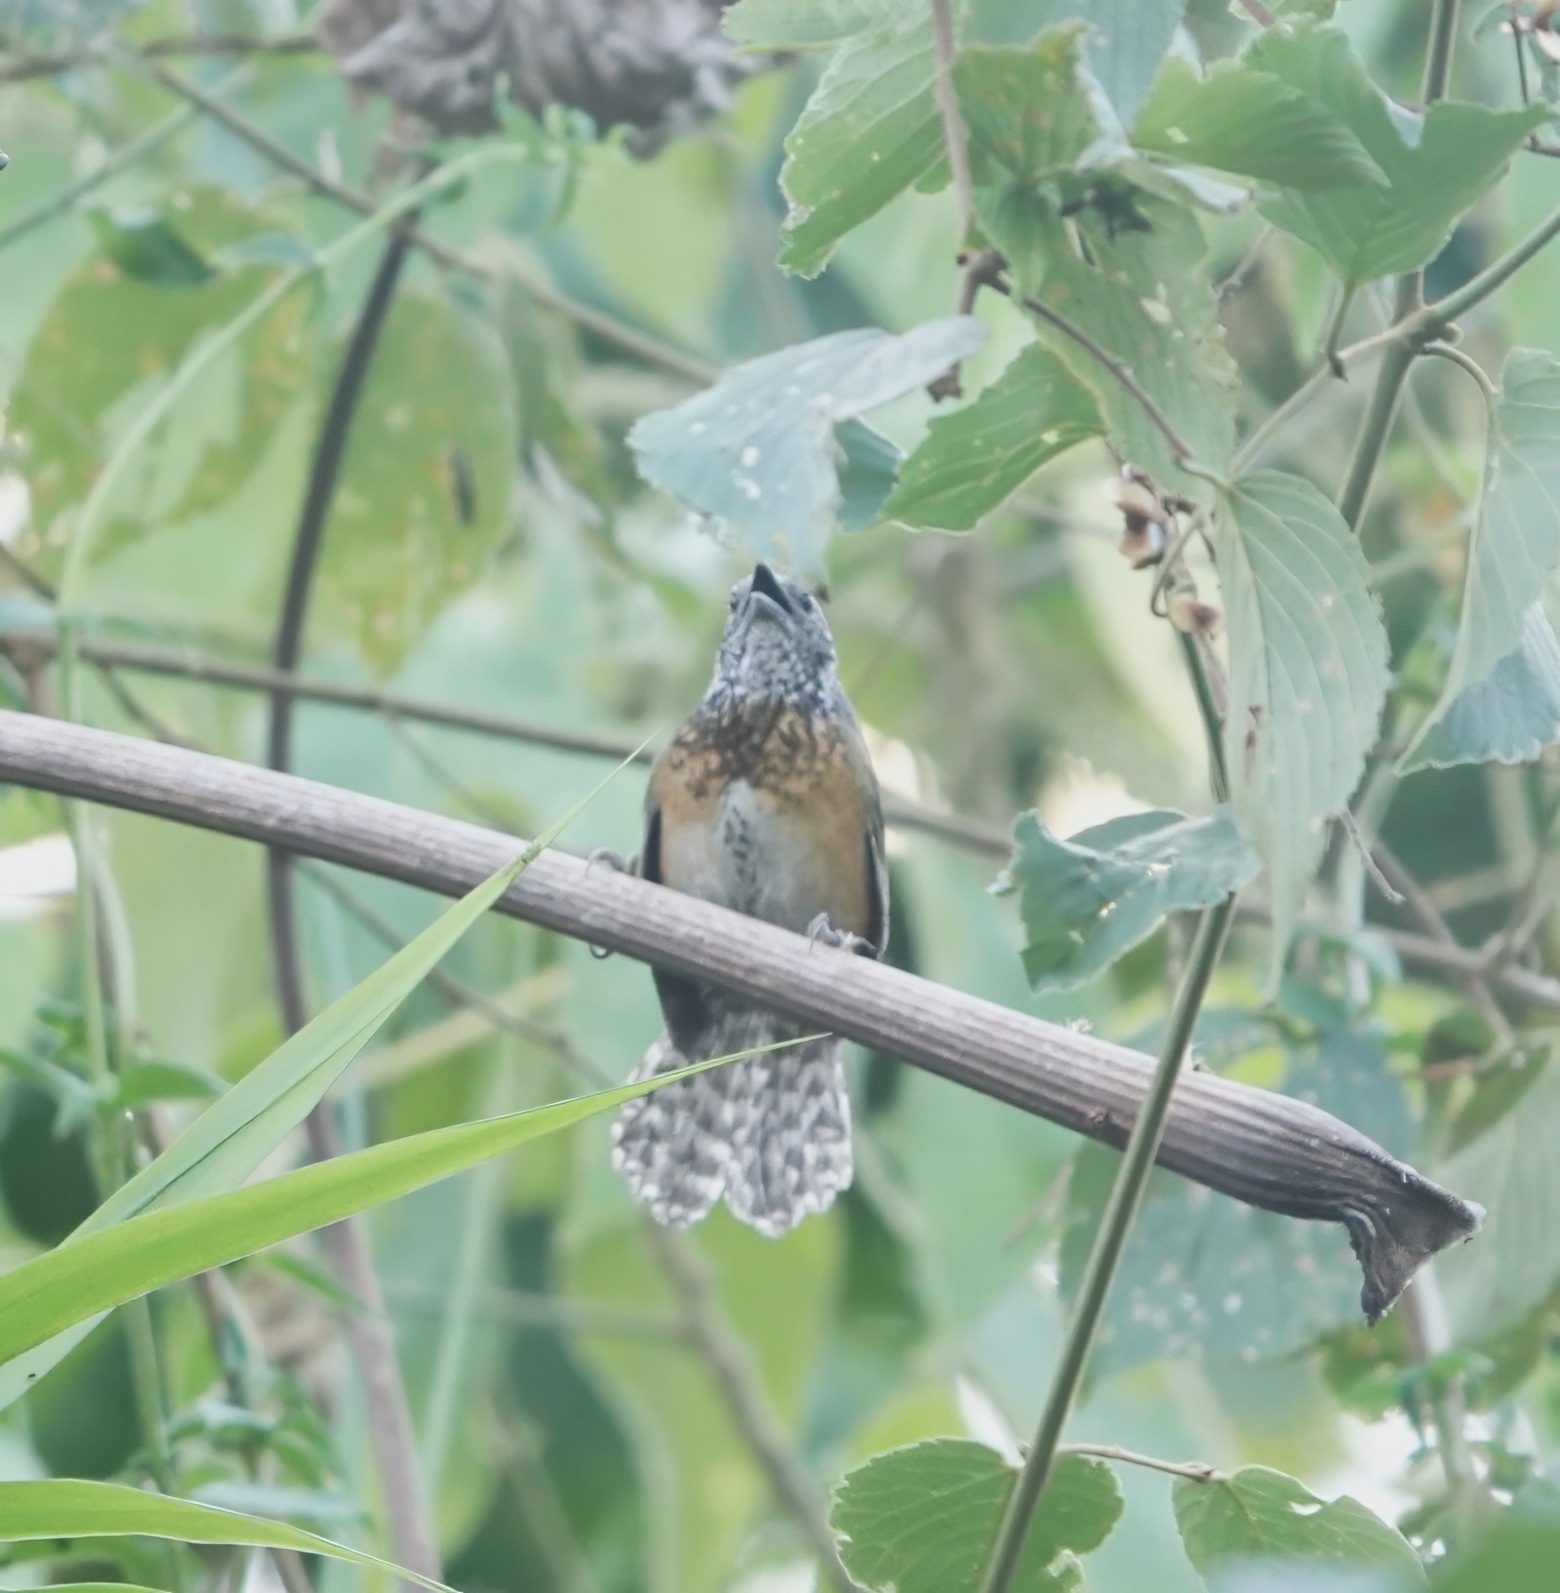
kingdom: Animalia
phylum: Chordata
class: Aves
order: Passeriformes
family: Troglodytidae
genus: Pheugopedius
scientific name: Pheugopedius rutilus
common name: Rufous-breasted wren
